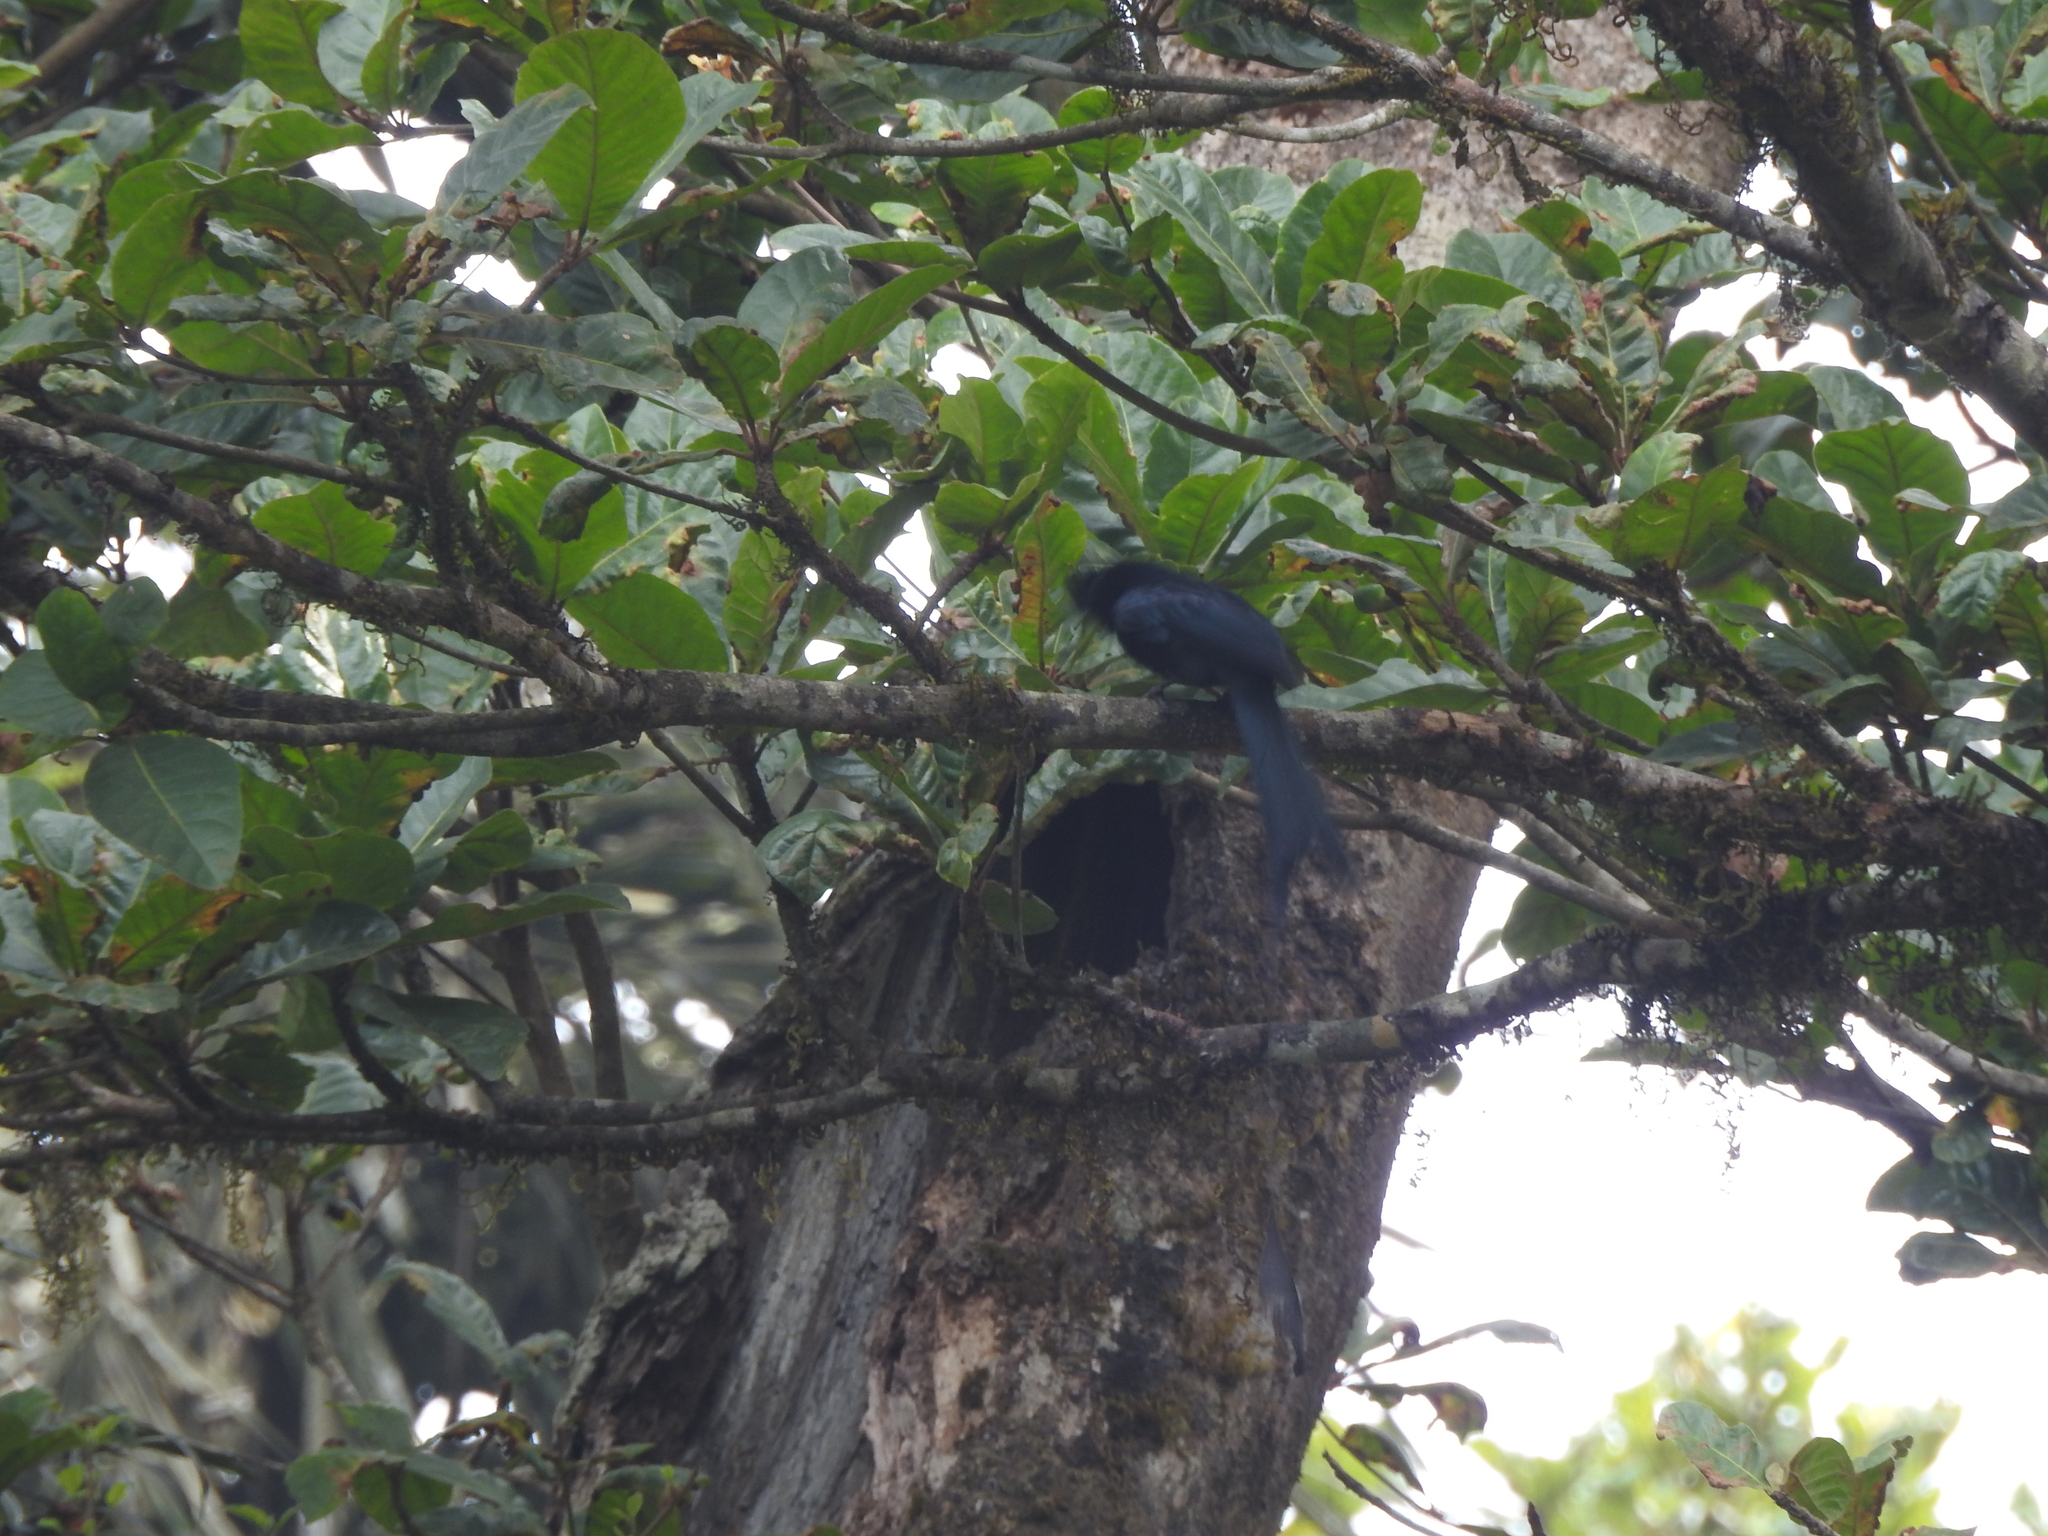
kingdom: Animalia
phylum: Chordata
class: Aves
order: Passeriformes
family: Dicruridae
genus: Dicrurus
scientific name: Dicrurus paradiseus
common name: Greater racket-tailed drongo
